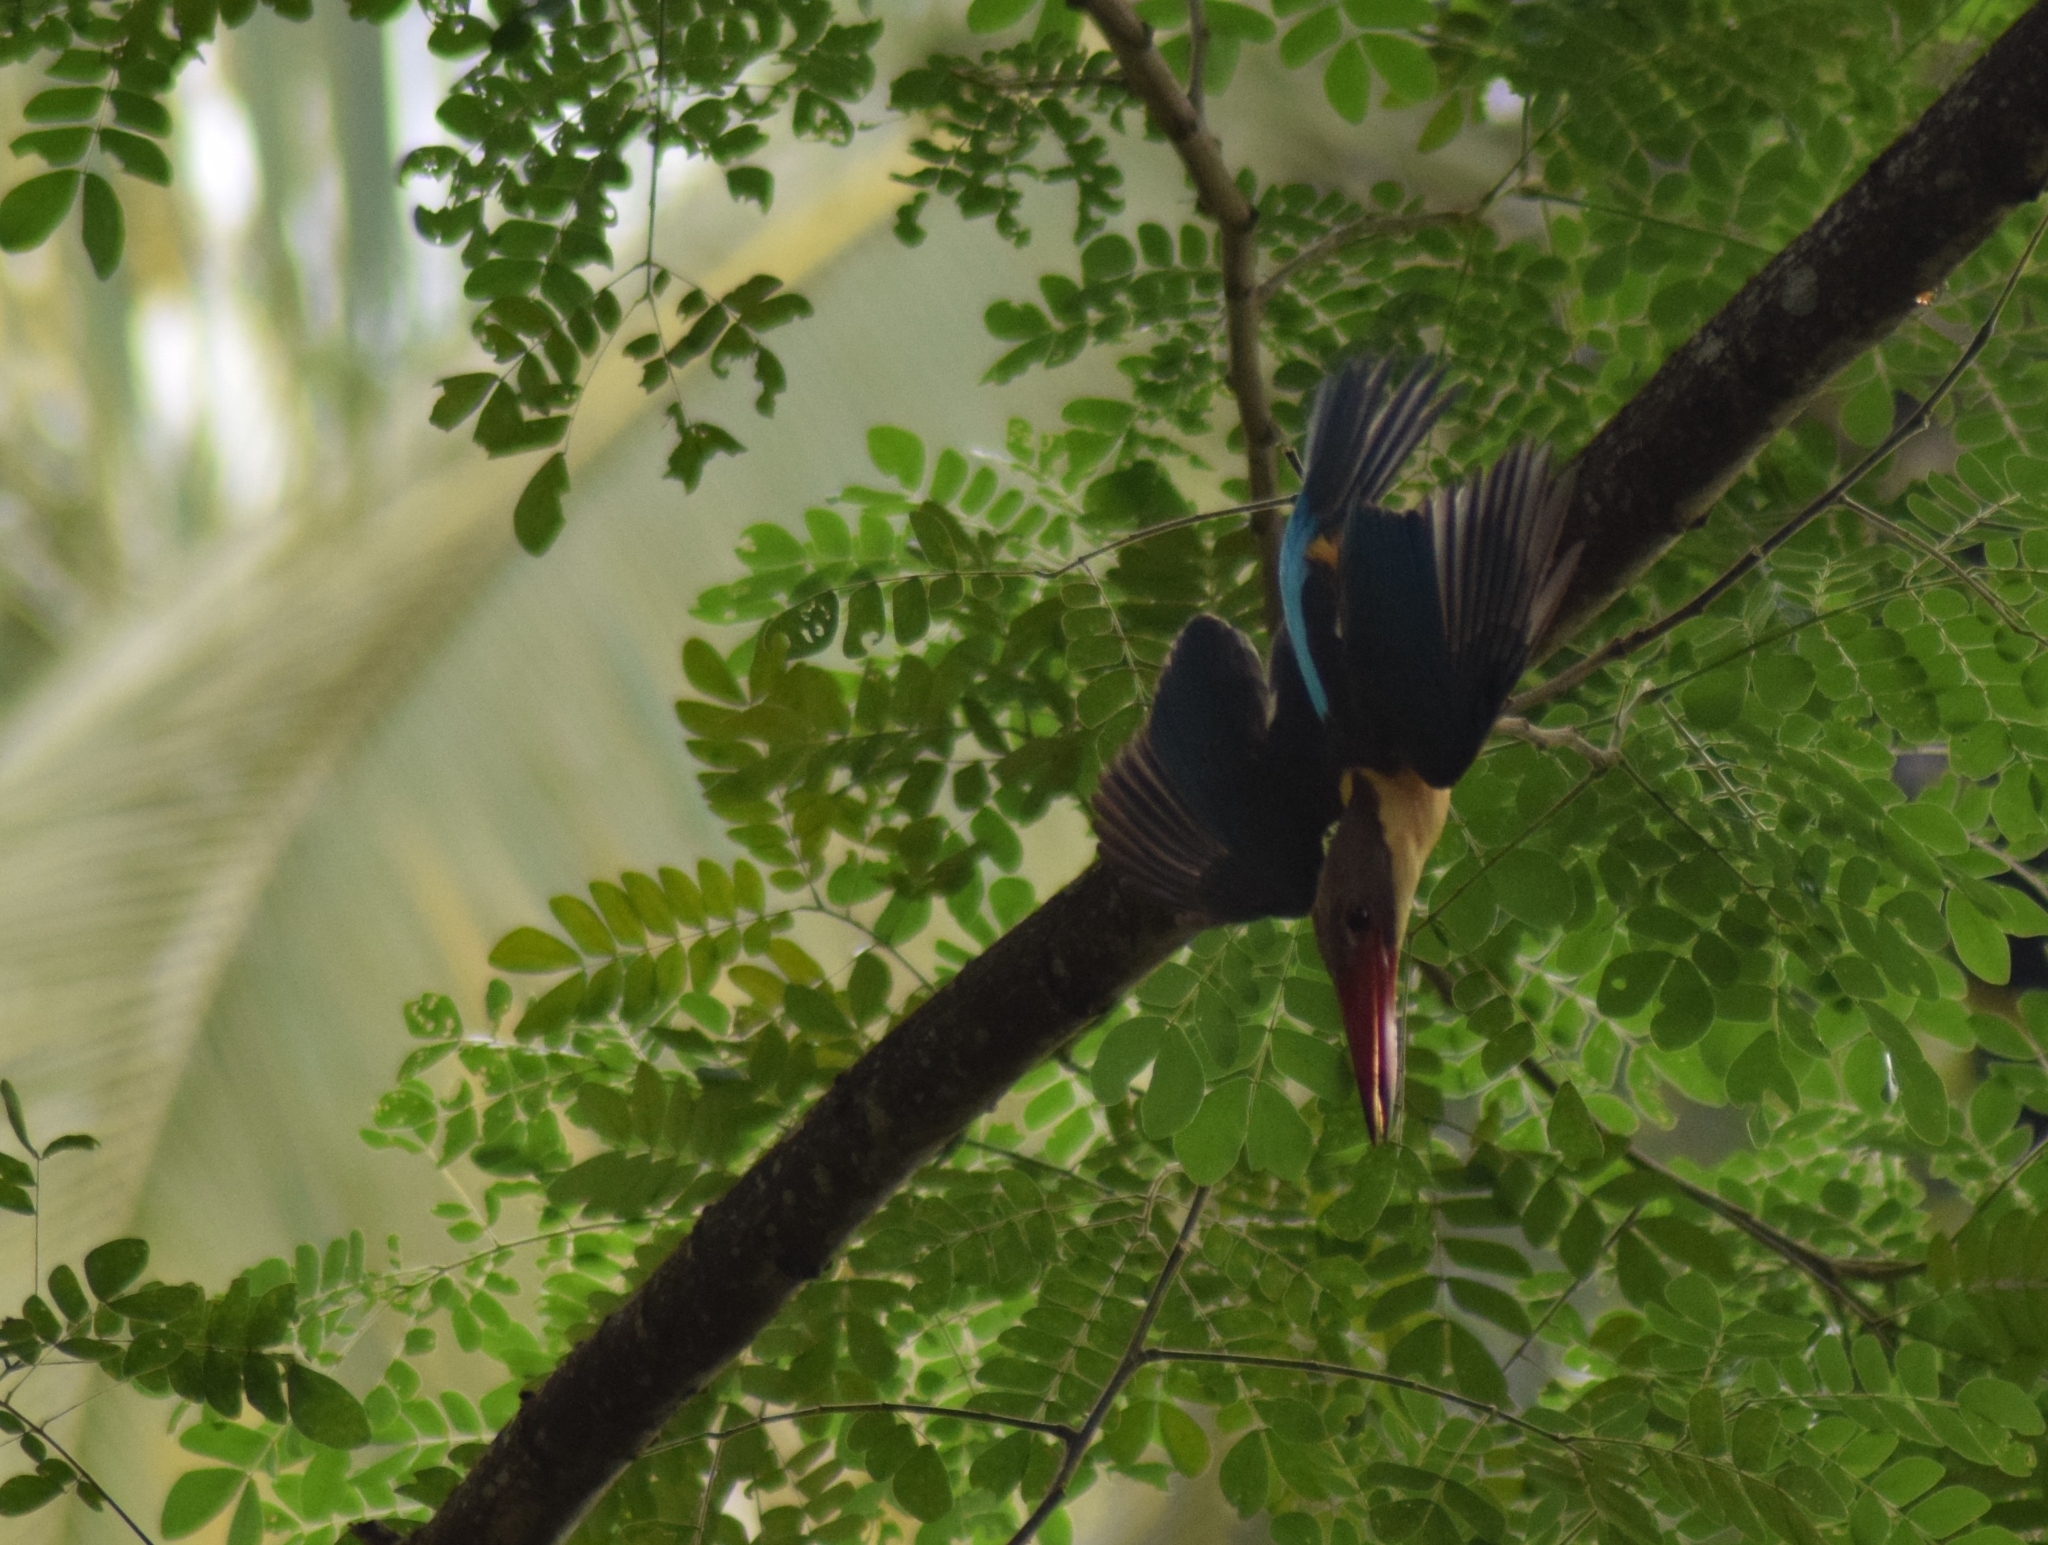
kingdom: Animalia
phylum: Chordata
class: Aves
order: Coraciiformes
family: Alcedinidae
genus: Pelargopsis
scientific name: Pelargopsis capensis
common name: Stork-billed kingfisher
